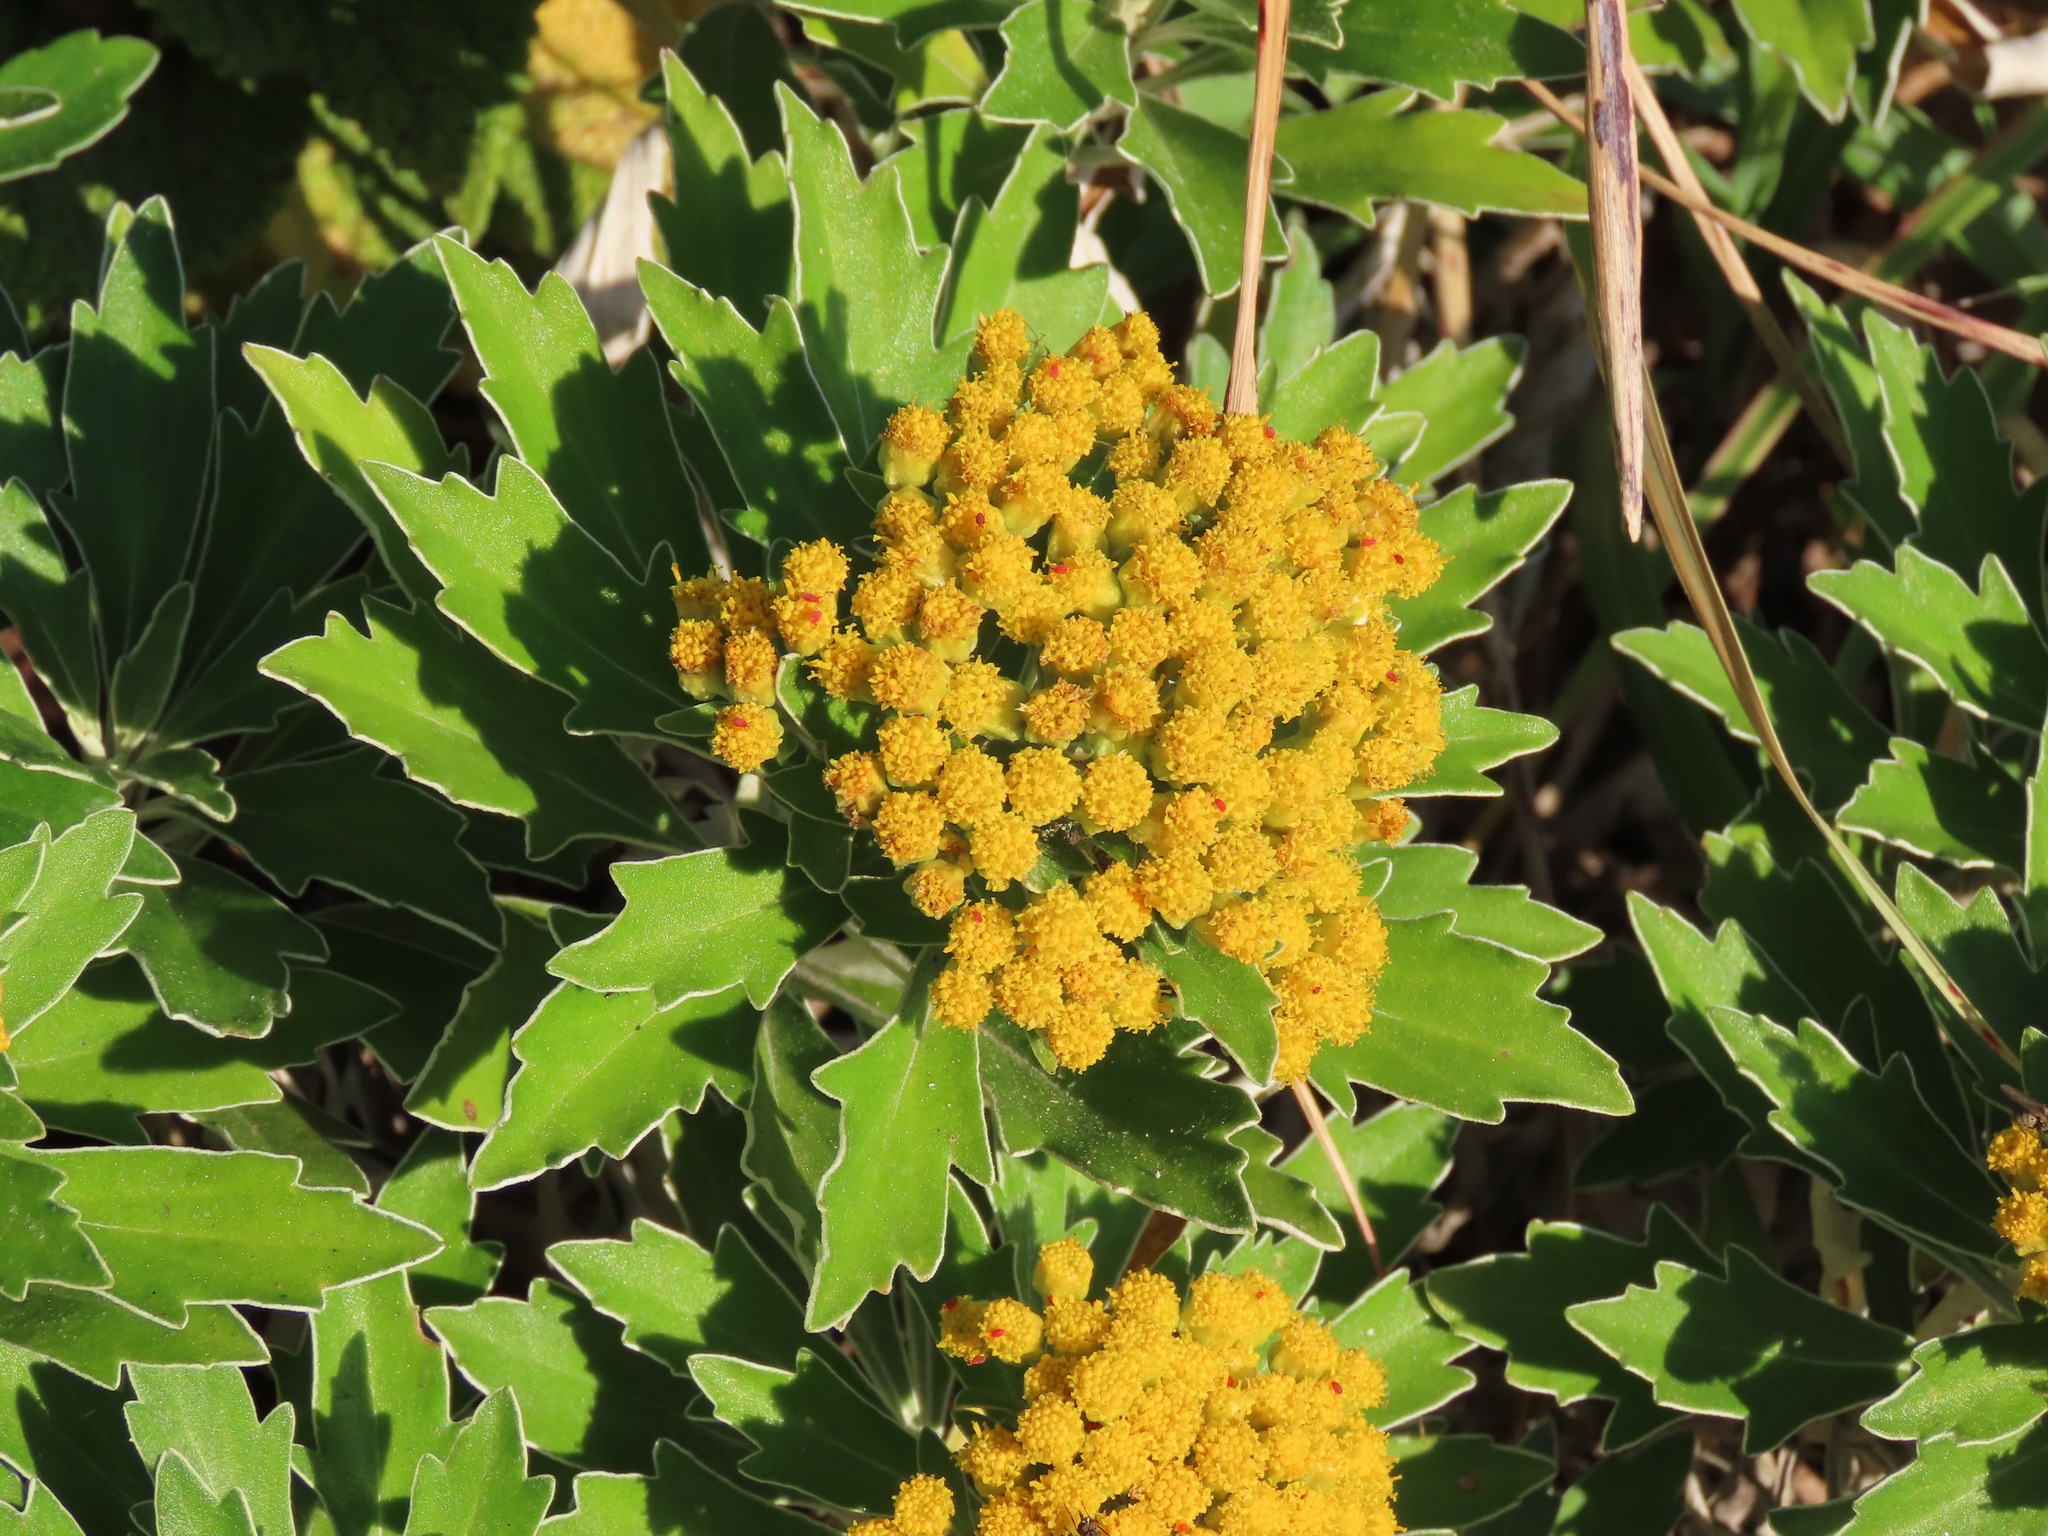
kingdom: Plantae
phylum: Tracheophyta
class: Magnoliopsida
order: Asterales
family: Asteraceae
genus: Ajania
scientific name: Ajania pacifica
